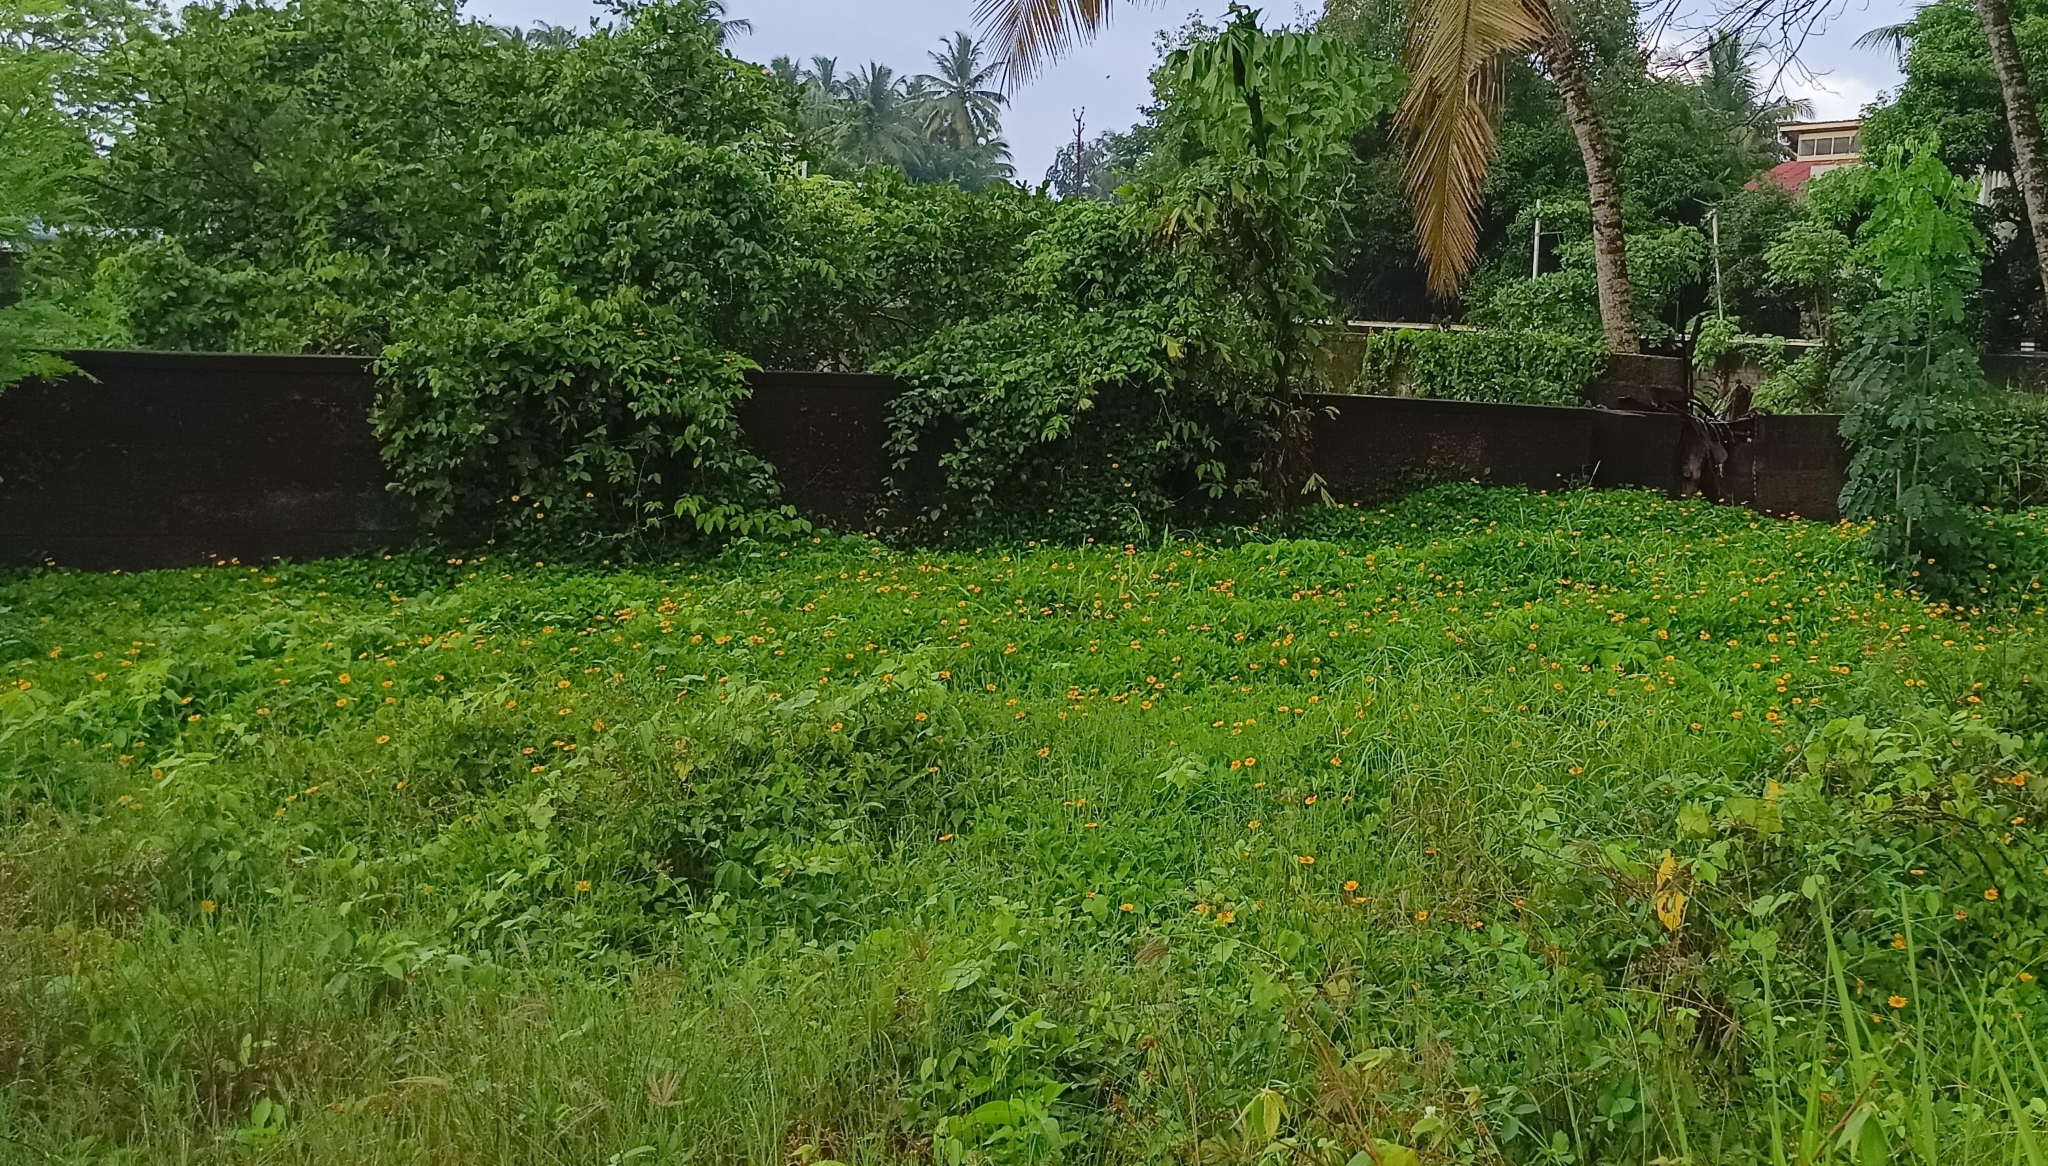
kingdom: Plantae
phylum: Tracheophyta
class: Magnoliopsida
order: Asterales
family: Asteraceae
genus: Sphagneticola
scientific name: Sphagneticola trilobata
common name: Bay biscayne creeping-oxeye
